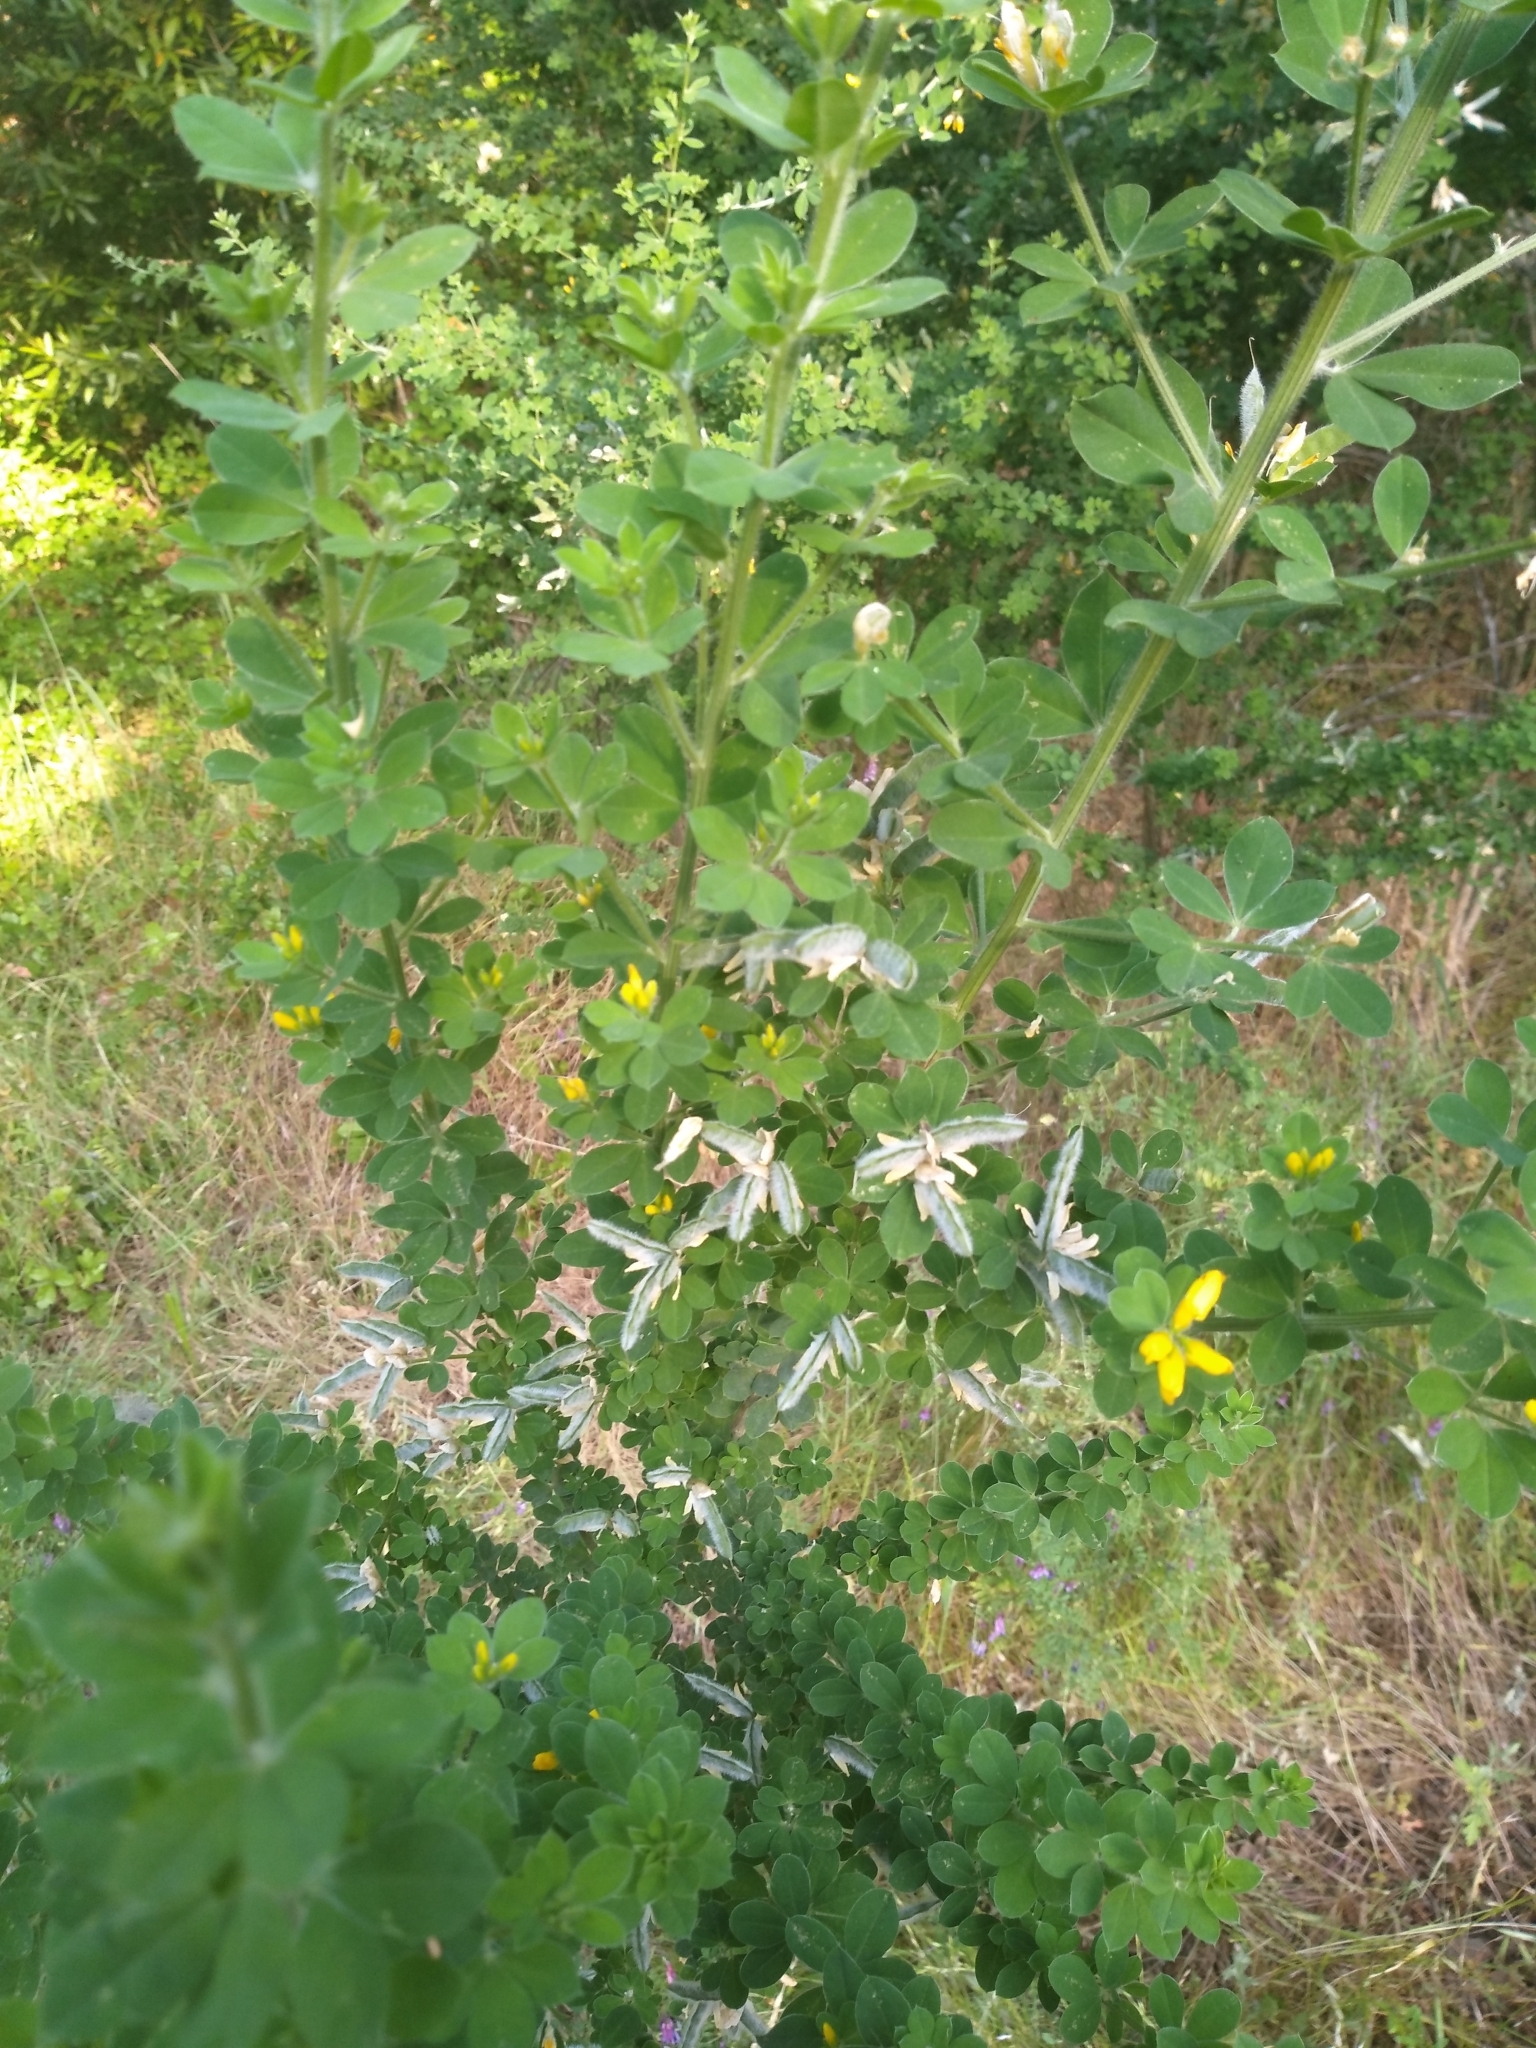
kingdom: Plantae
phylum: Tracheophyta
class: Magnoliopsida
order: Fabales
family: Fabaceae
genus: Genista
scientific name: Genista monspessulana
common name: Montpellier broom
